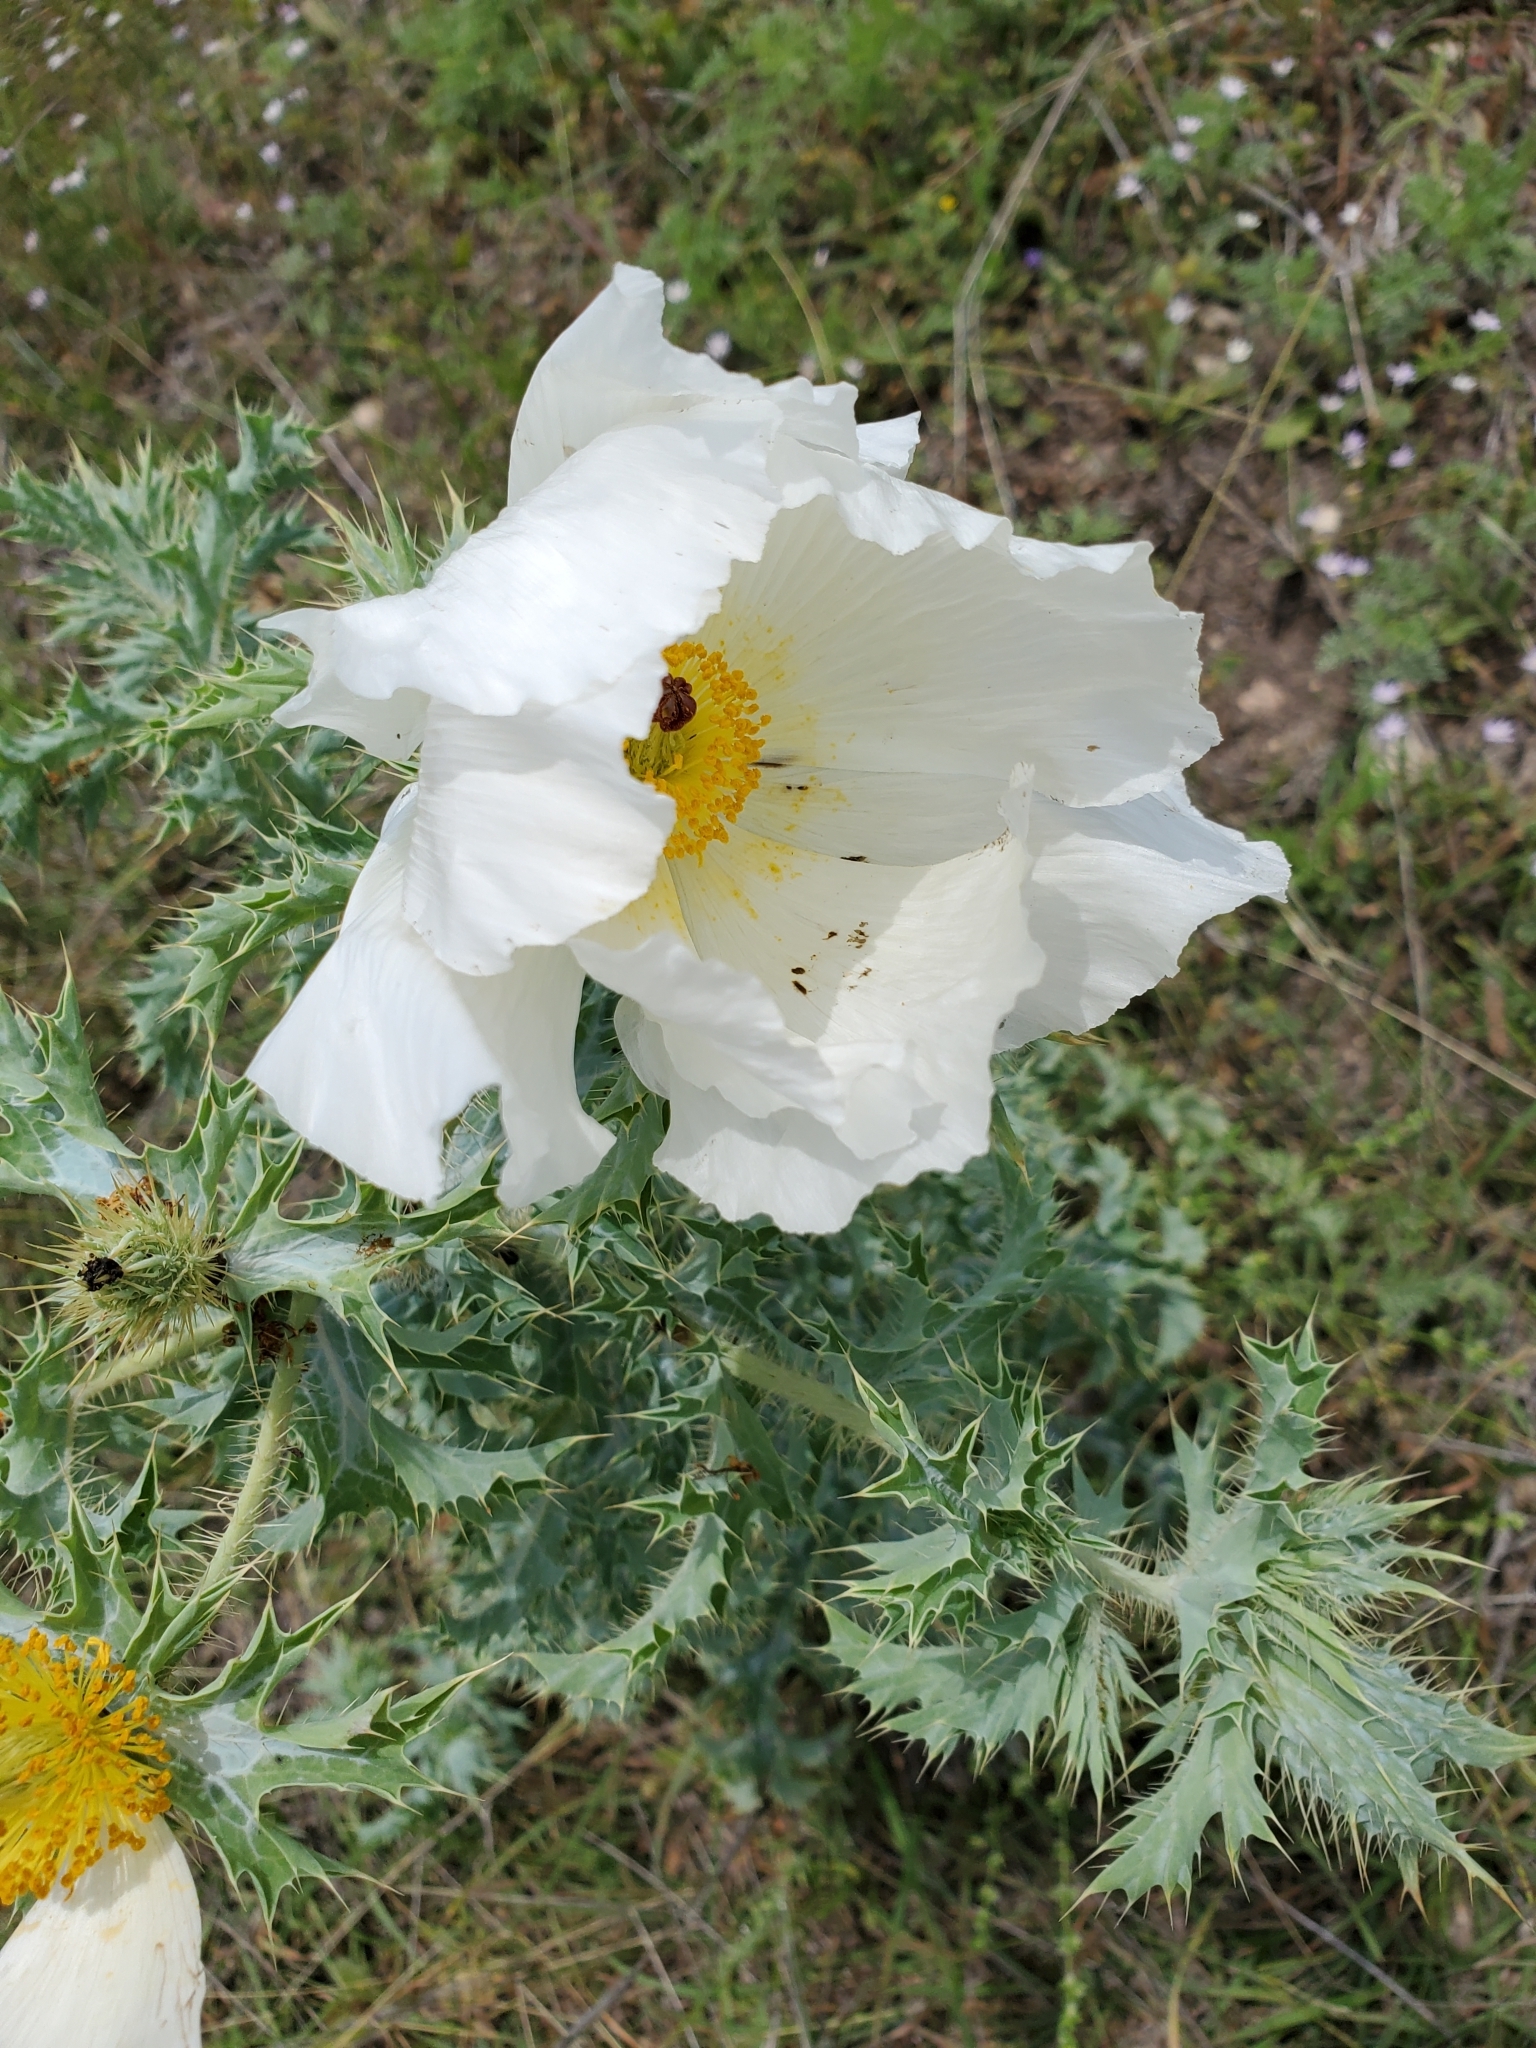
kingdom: Plantae
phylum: Tracheophyta
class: Magnoliopsida
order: Ranunculales
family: Papaveraceae
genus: Argemone
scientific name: Argemone aurantiaca
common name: Texas prickly-poppy
